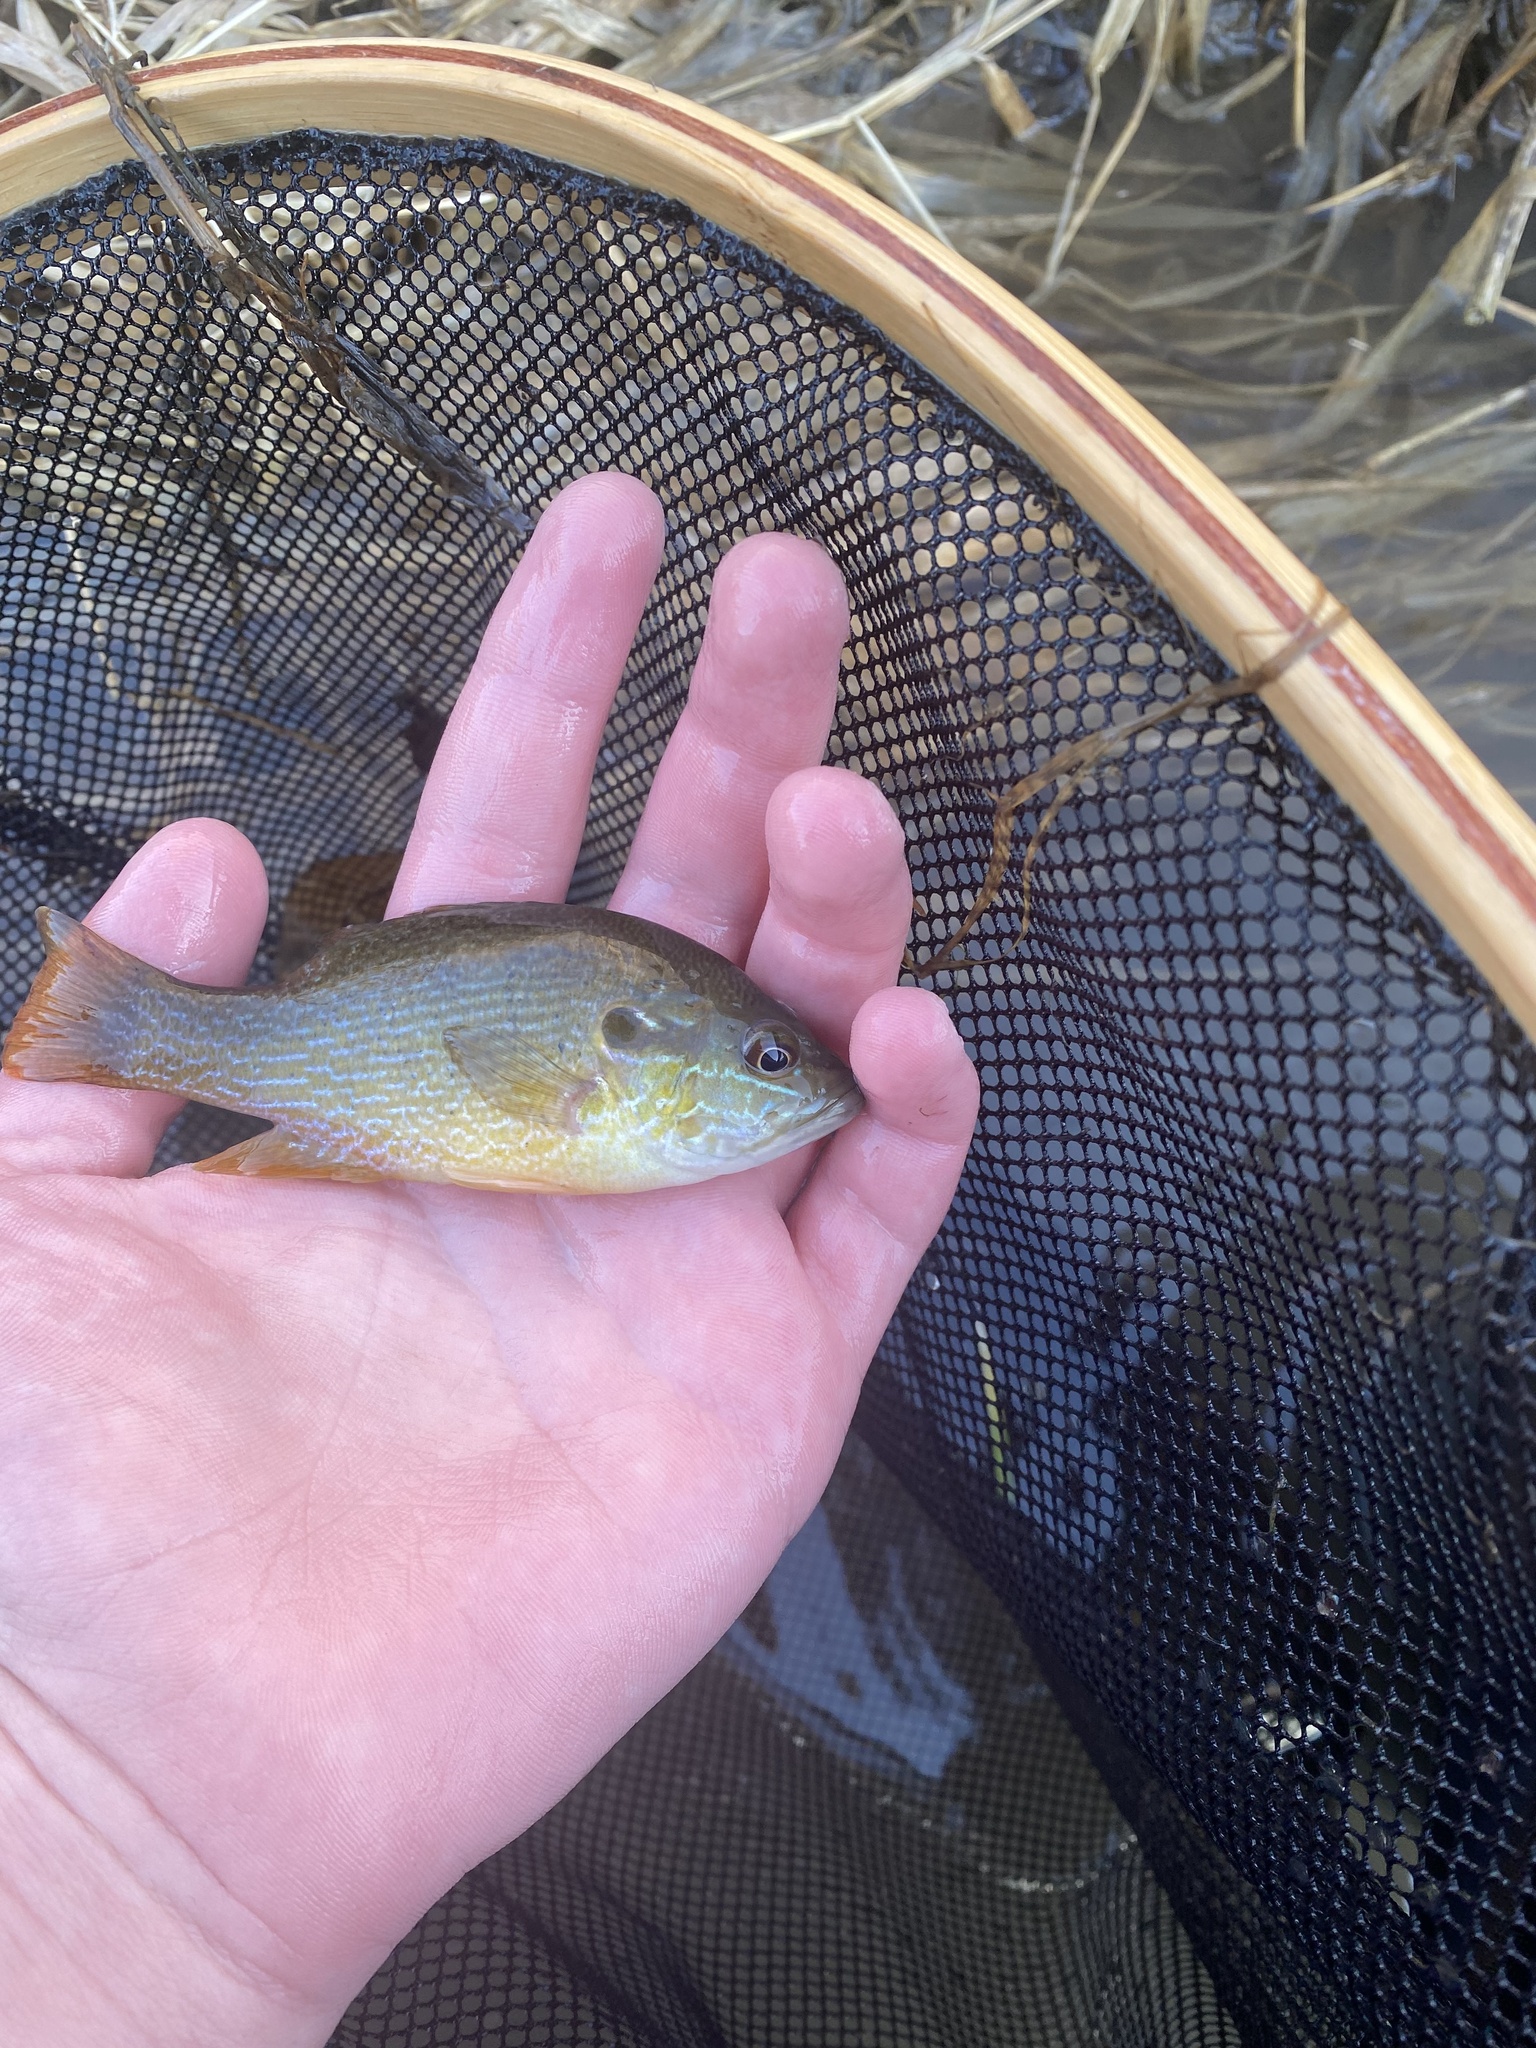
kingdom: Animalia
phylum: Chordata
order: Perciformes
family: Centrarchidae
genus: Lepomis
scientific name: Lepomis cyanellus
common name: Green sunfish
